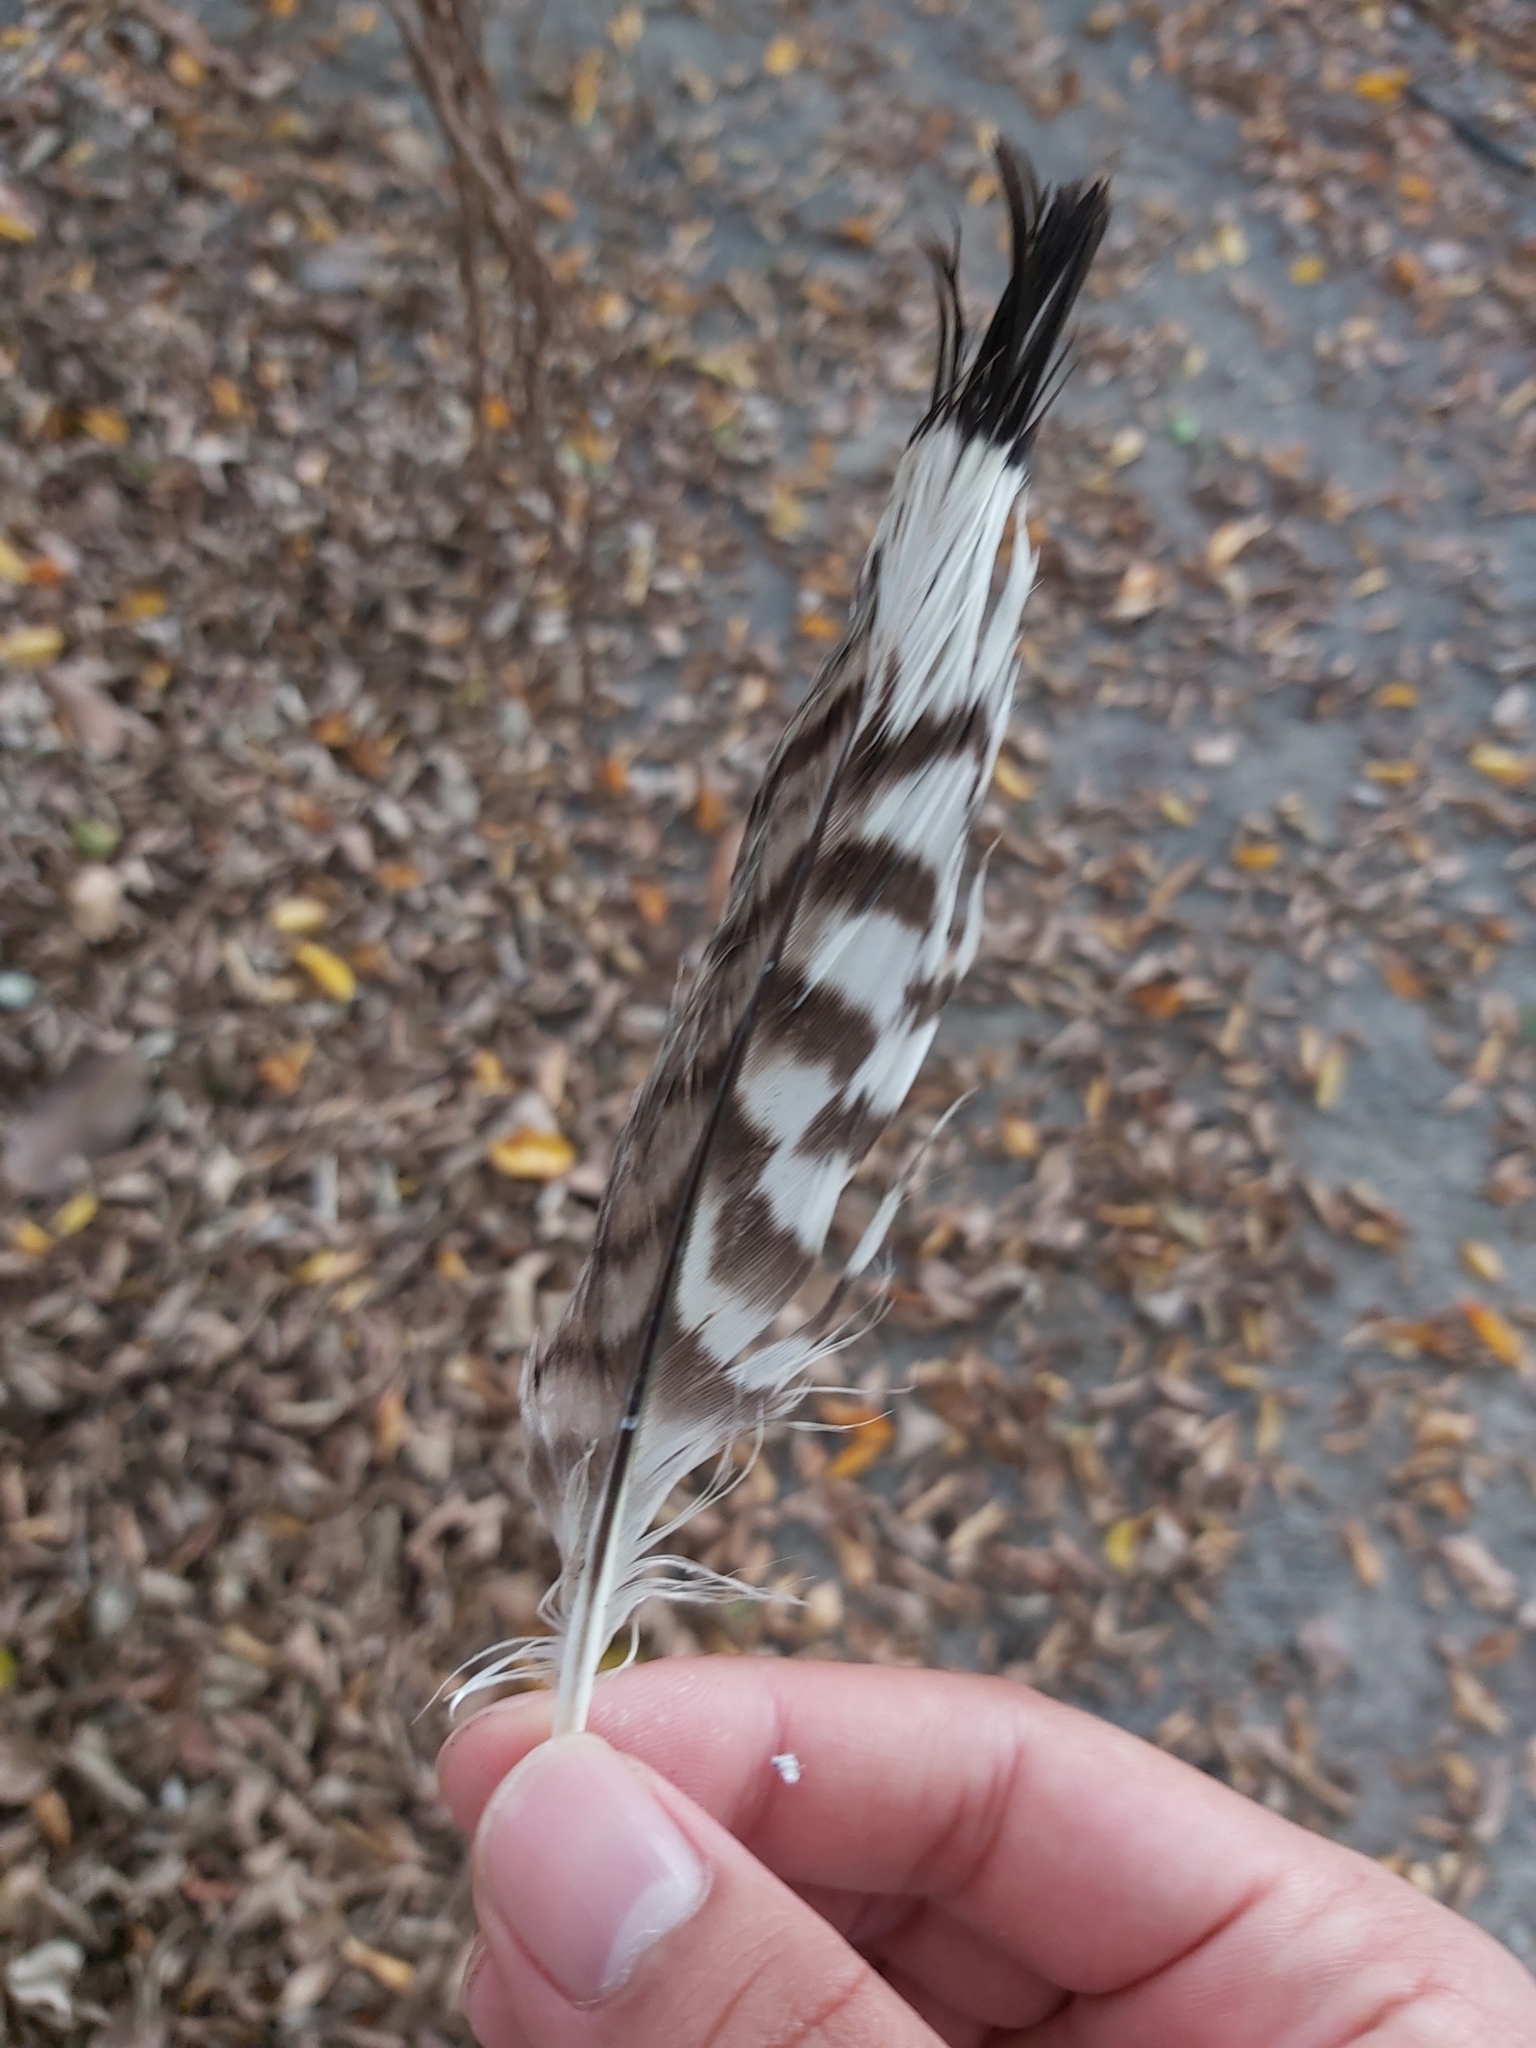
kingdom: Animalia
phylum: Chordata
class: Aves
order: Charadriiformes
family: Burhinidae
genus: Burhinus
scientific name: Burhinus grallarius
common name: Bush stone-curlew
